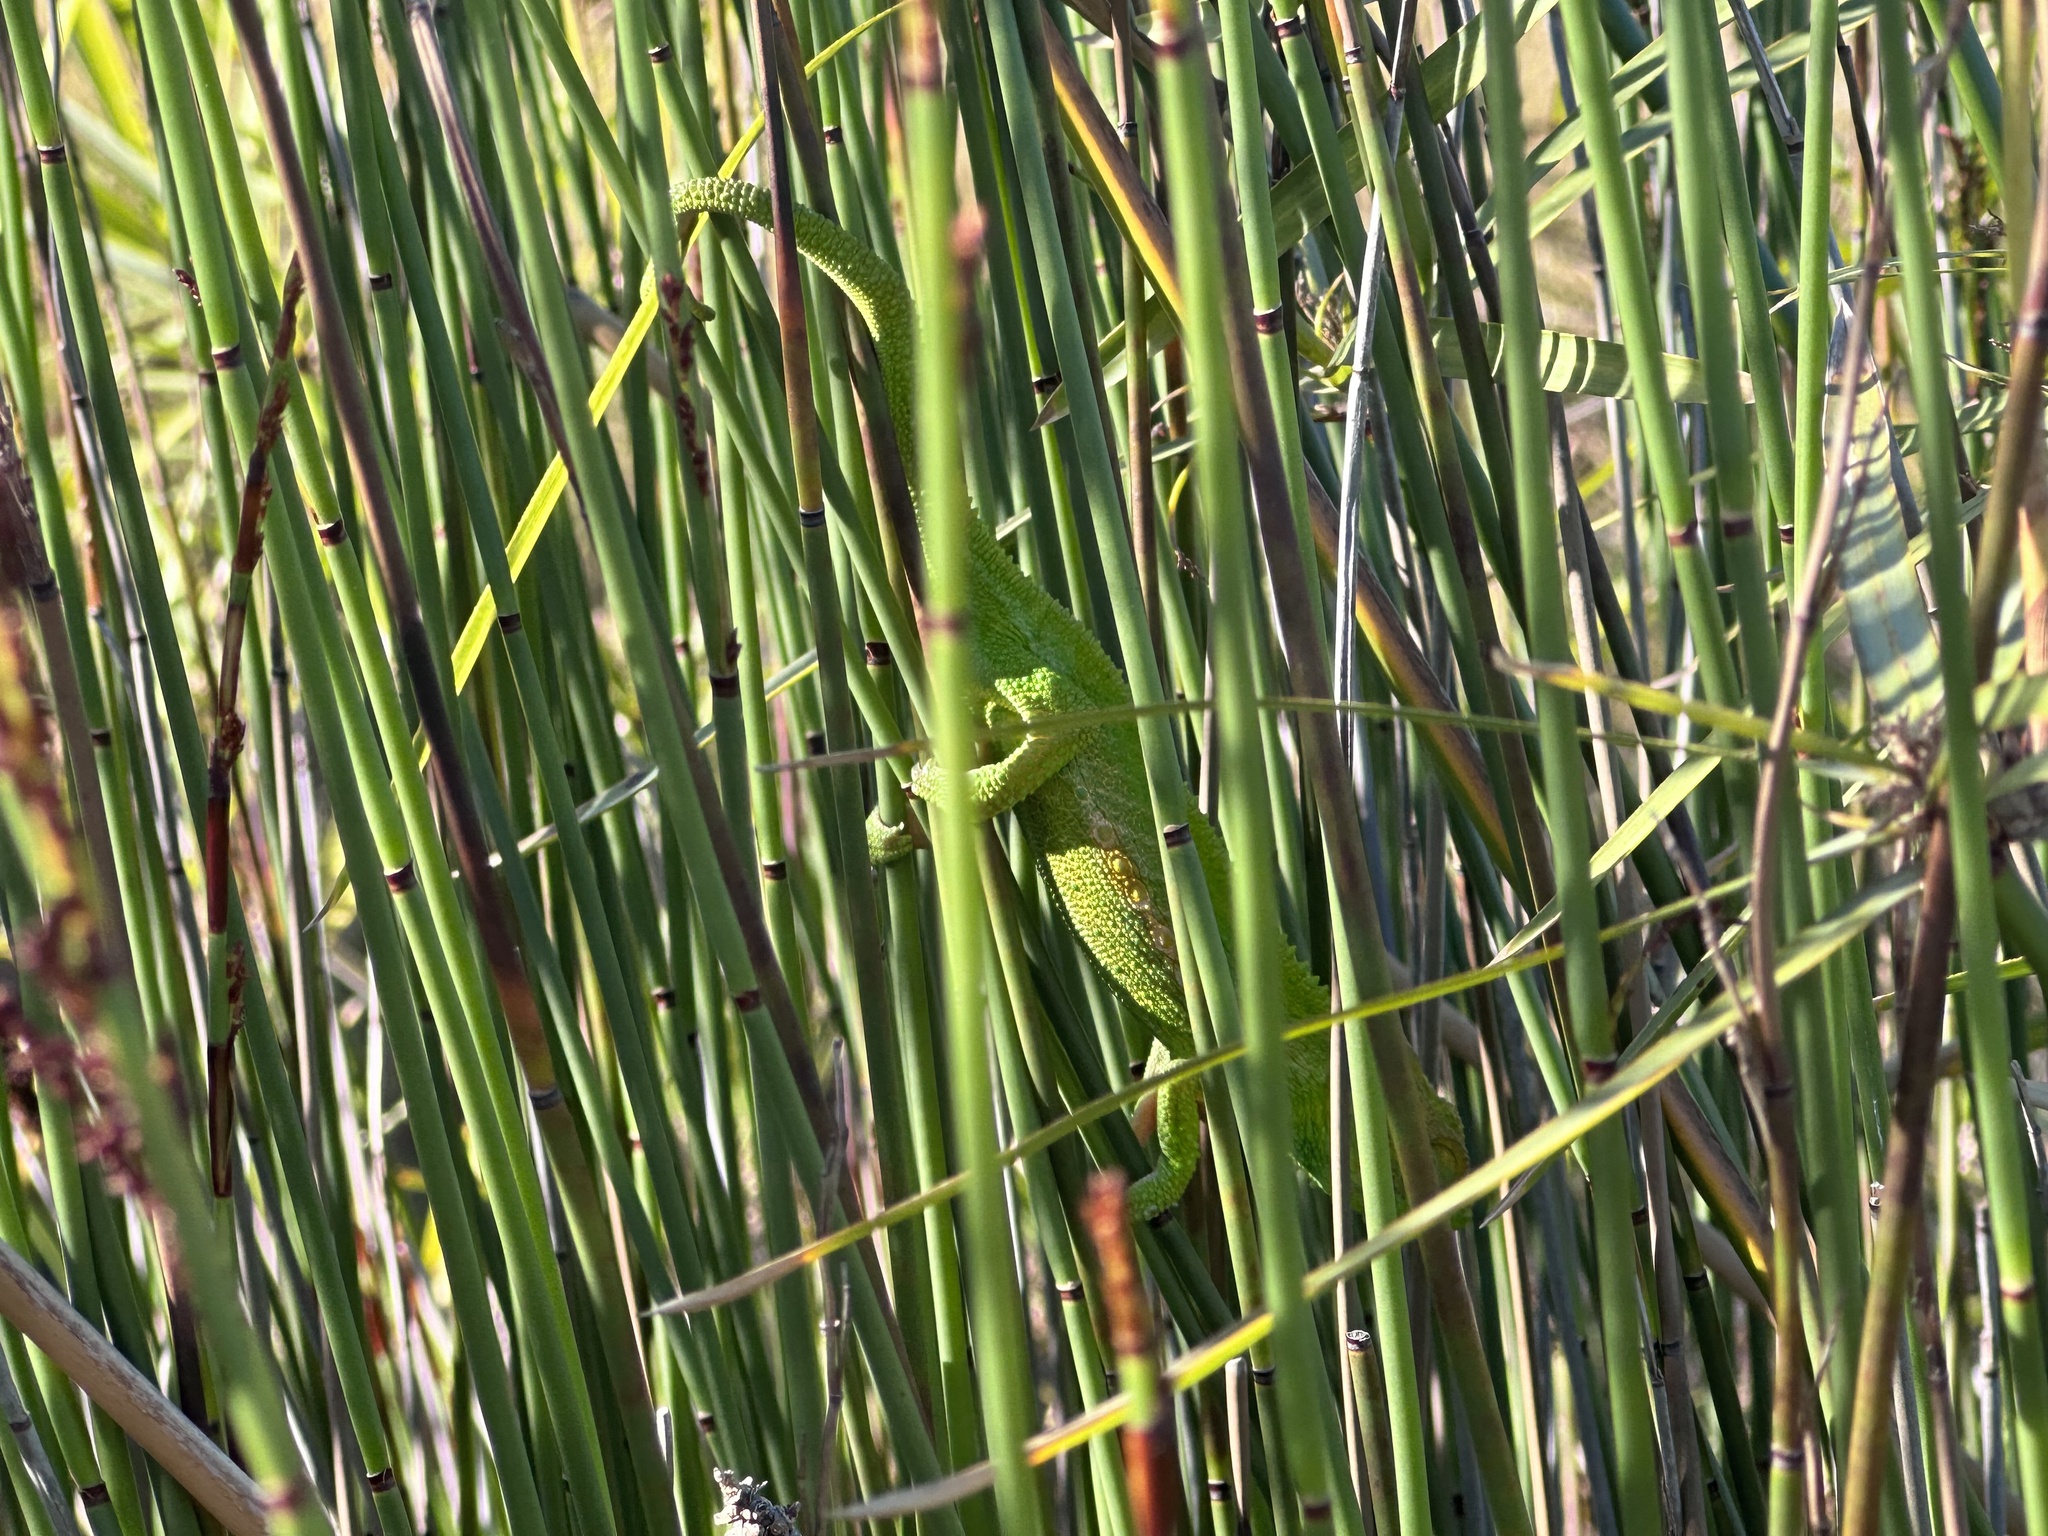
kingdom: Animalia
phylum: Chordata
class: Squamata
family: Chamaeleonidae
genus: Bradypodion
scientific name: Bradypodion pumilum
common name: Cape dwarf chameleon
